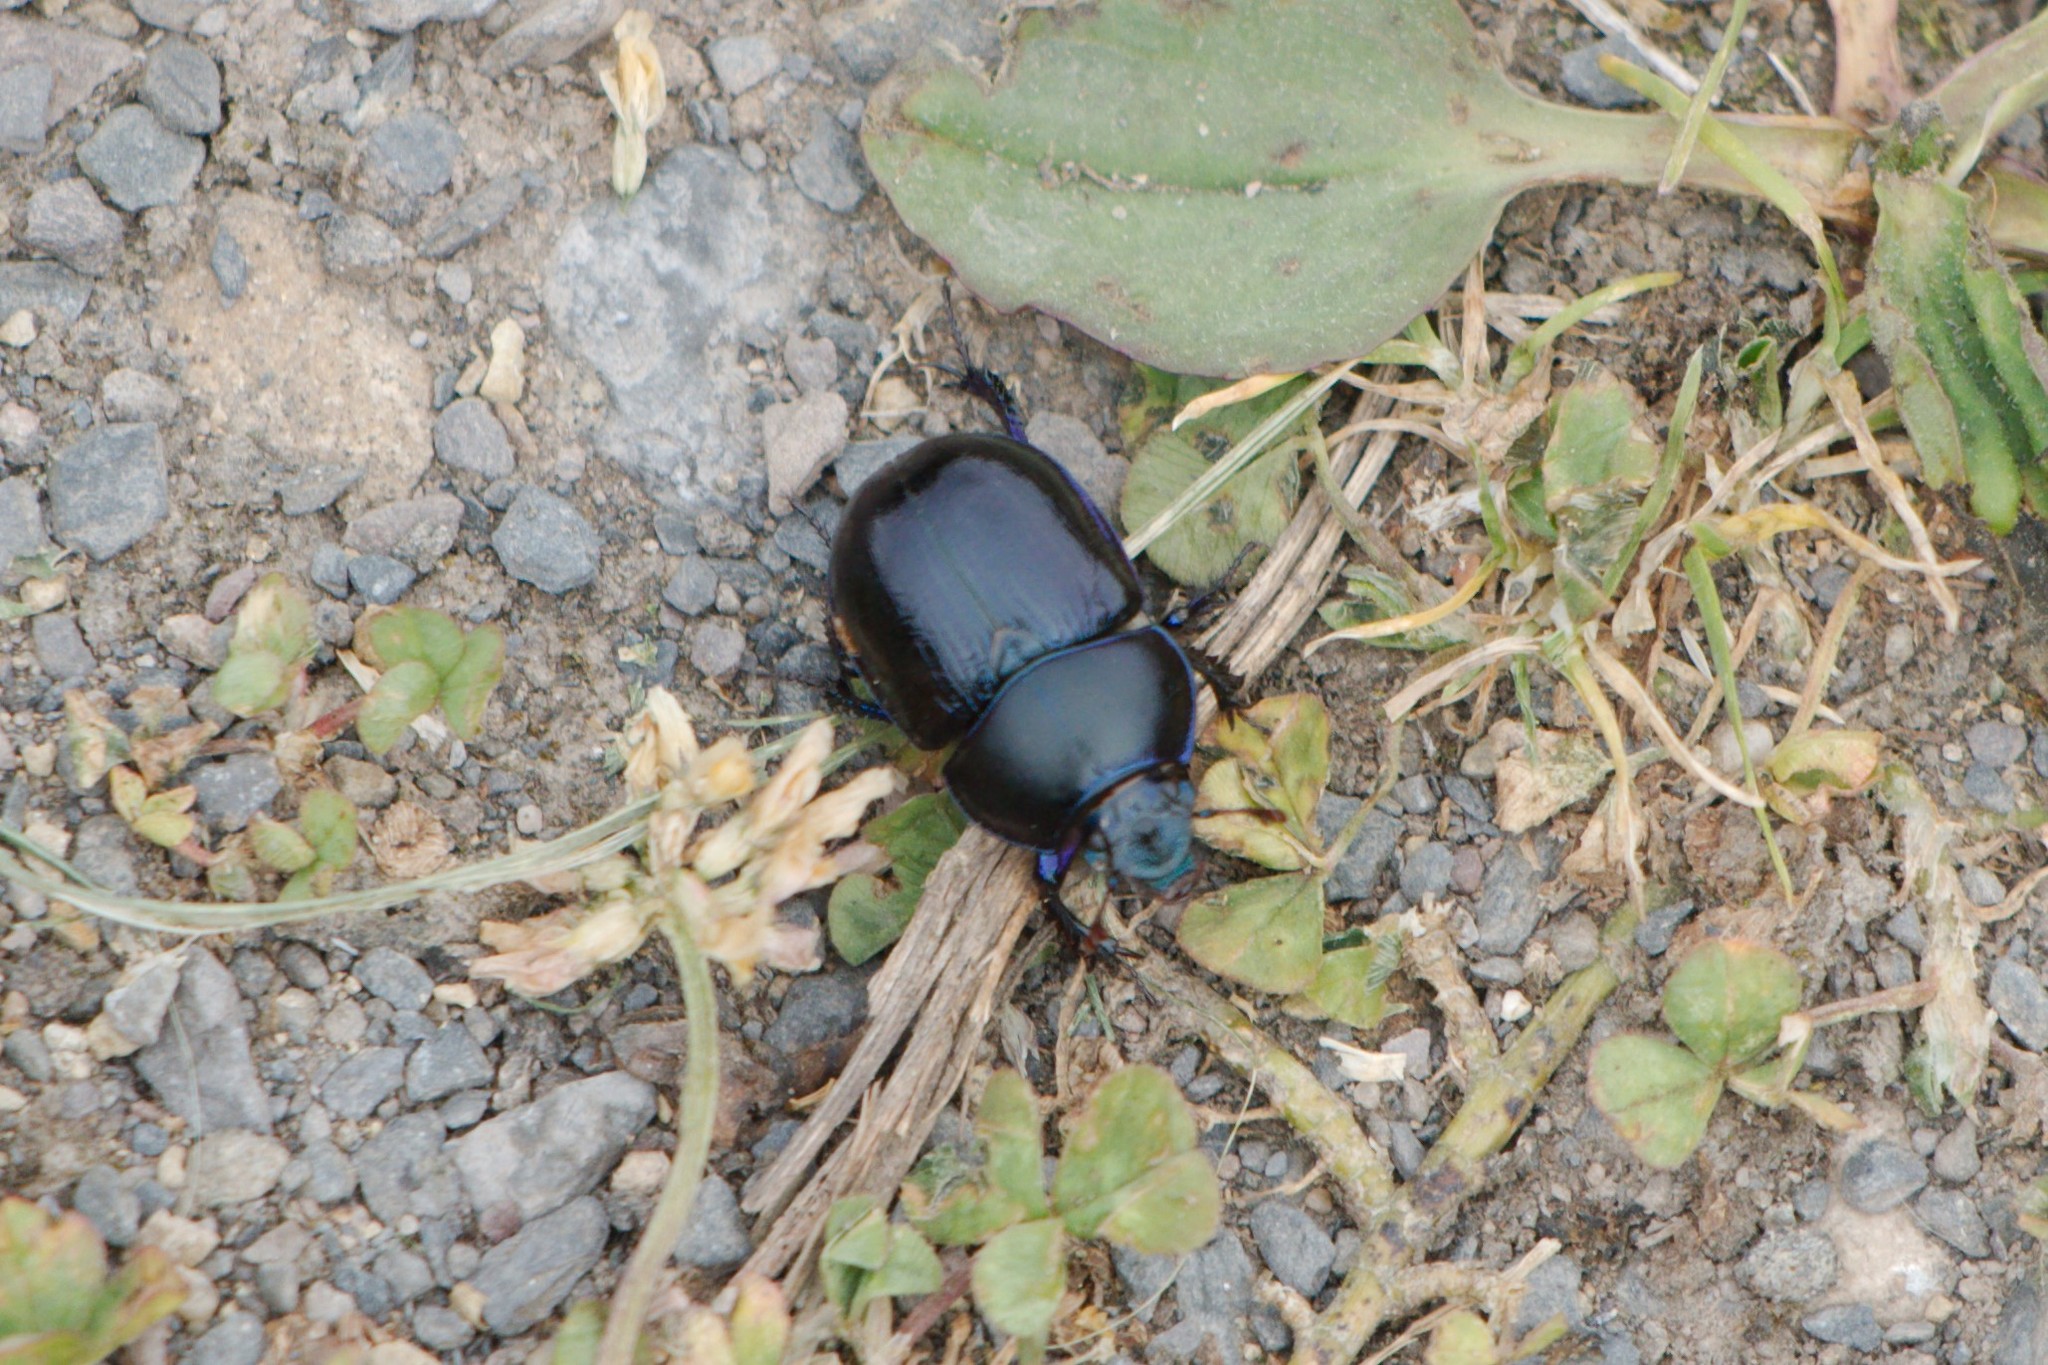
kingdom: Animalia
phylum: Arthropoda
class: Insecta
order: Coleoptera
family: Geotrupidae
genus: Anoplotrupes
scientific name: Anoplotrupes stercorosus
